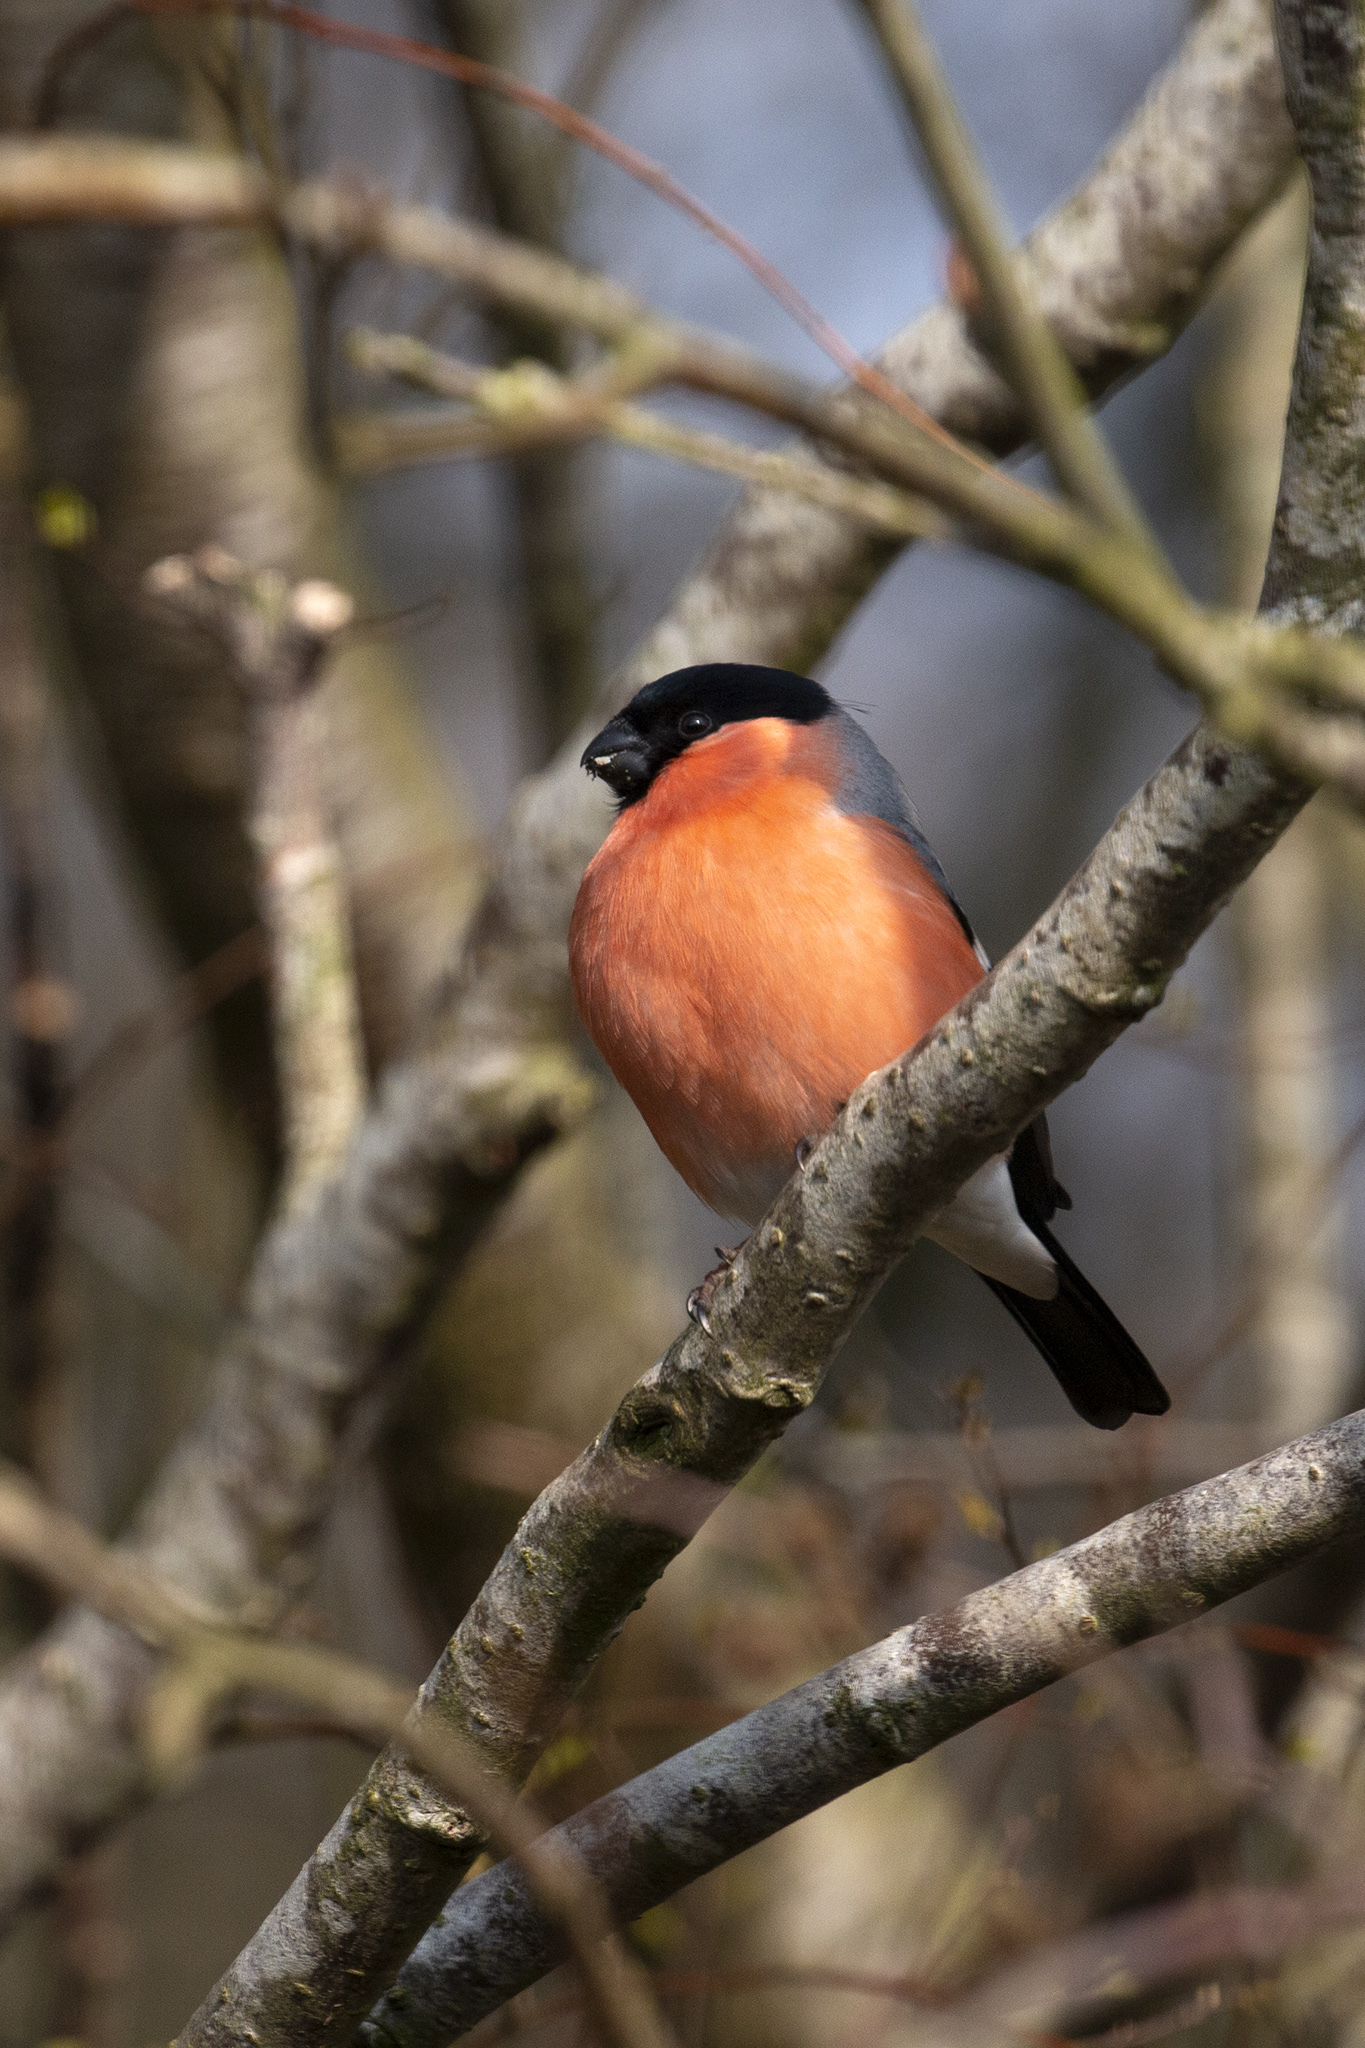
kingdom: Animalia
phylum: Chordata
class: Aves
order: Passeriformes
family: Fringillidae
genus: Pyrrhula
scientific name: Pyrrhula pyrrhula
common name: Eurasian bullfinch
